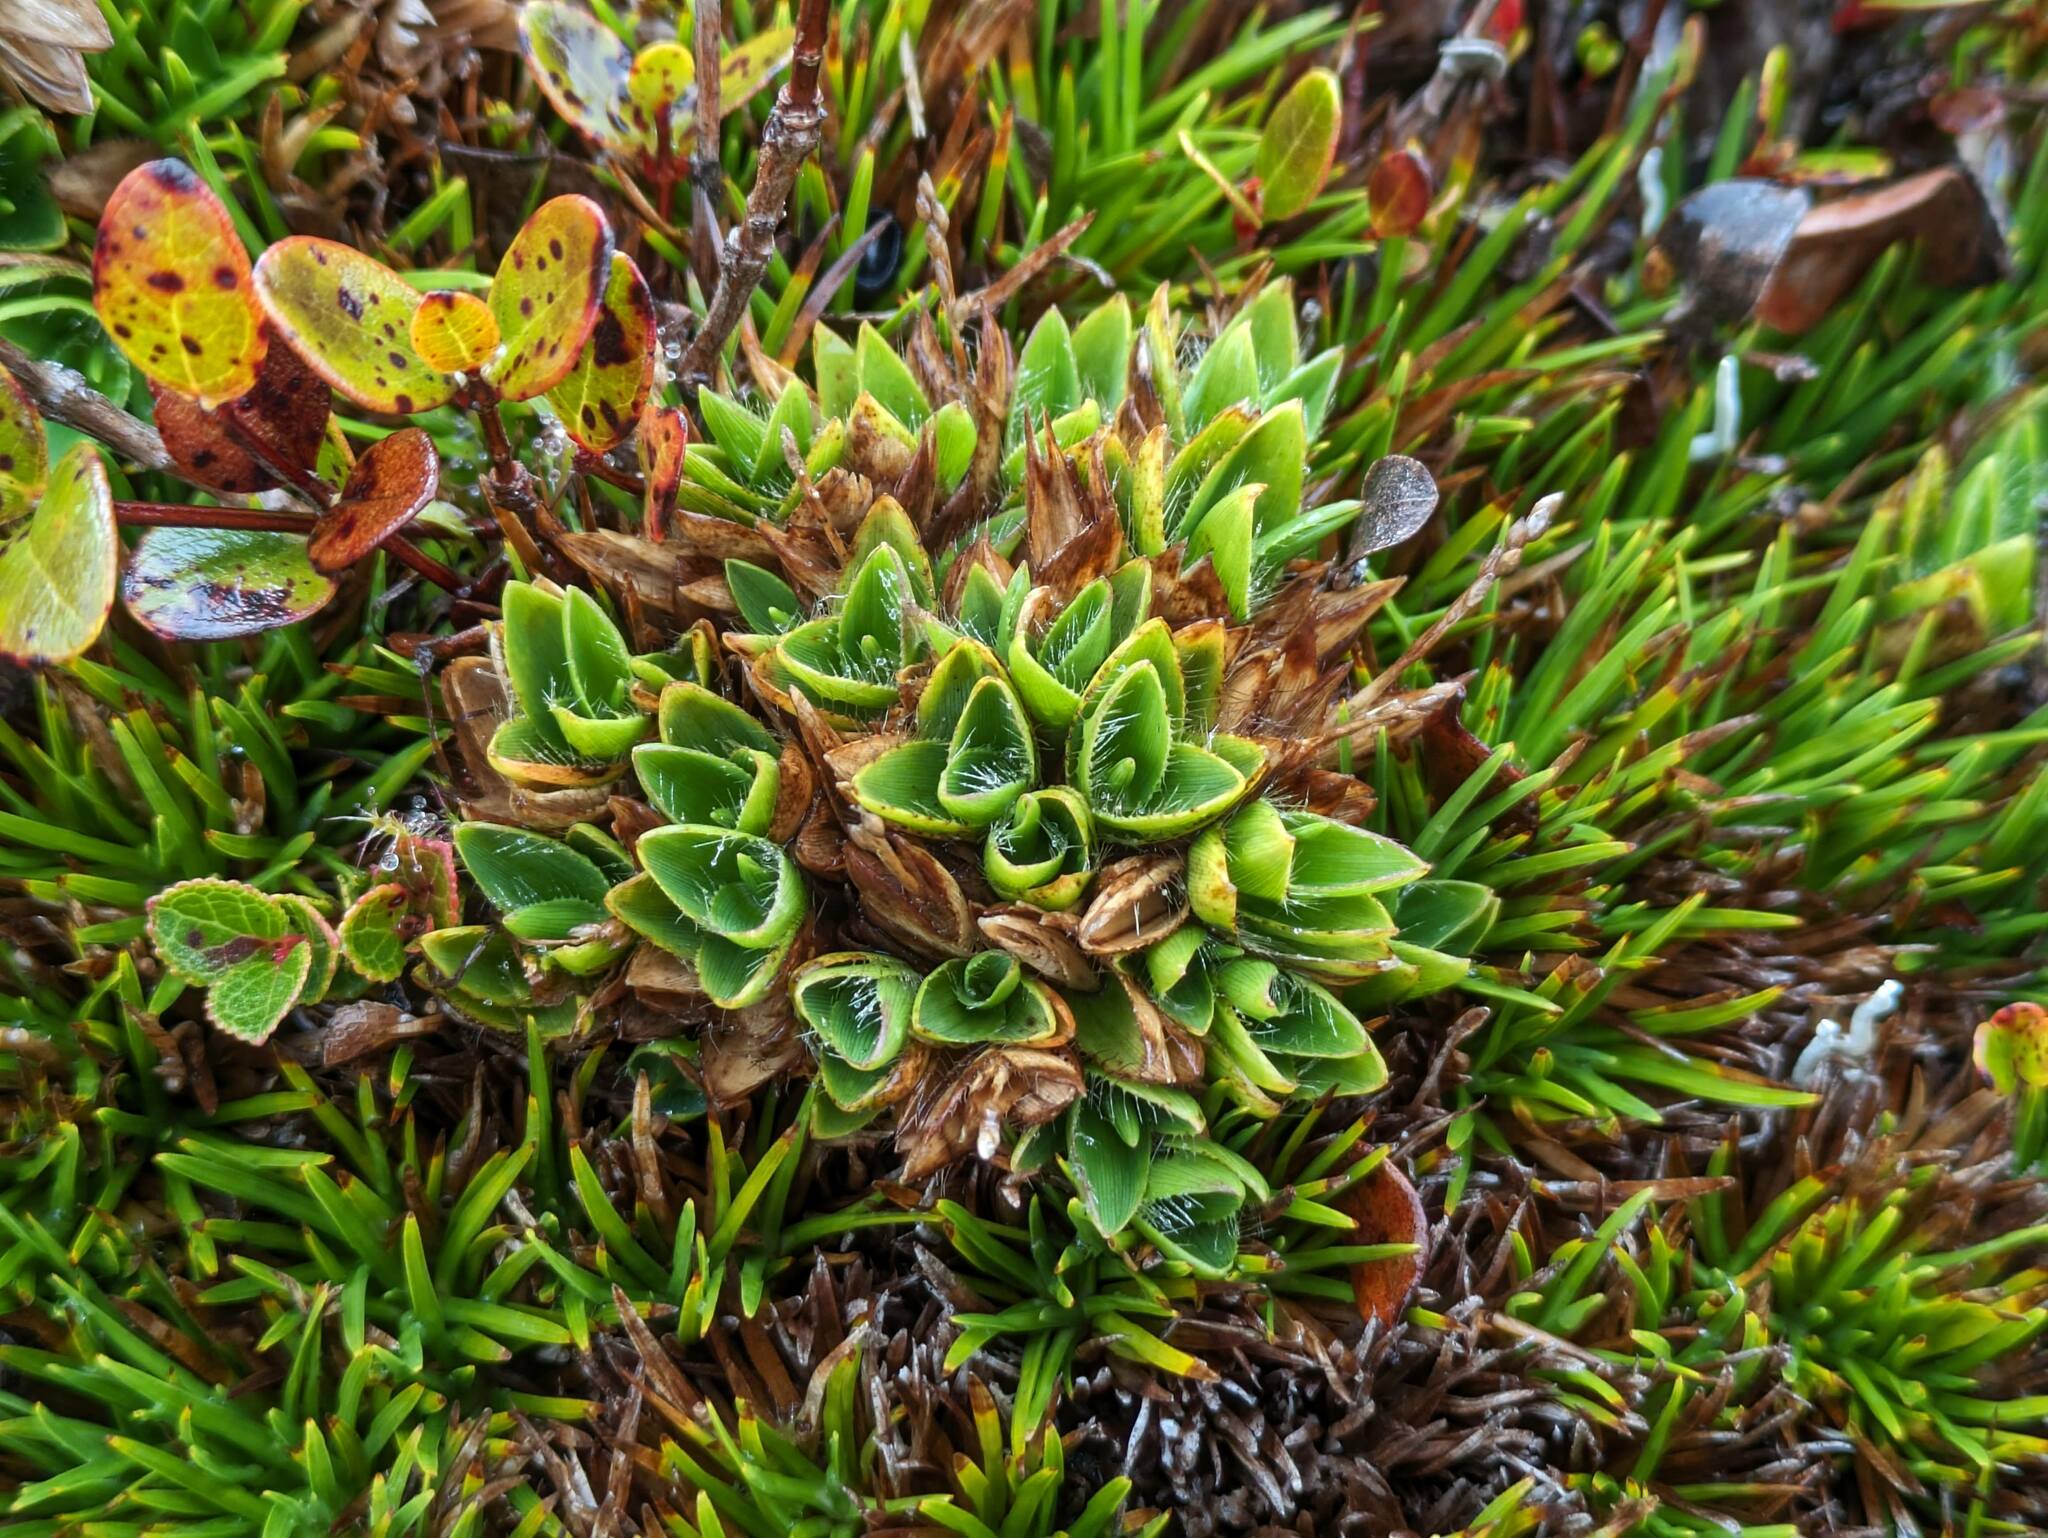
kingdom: Plantae
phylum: Tracheophyta
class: Liliopsida
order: Poales
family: Poaceae
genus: Dichanthelium
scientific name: Dichanthelium isachnoides
